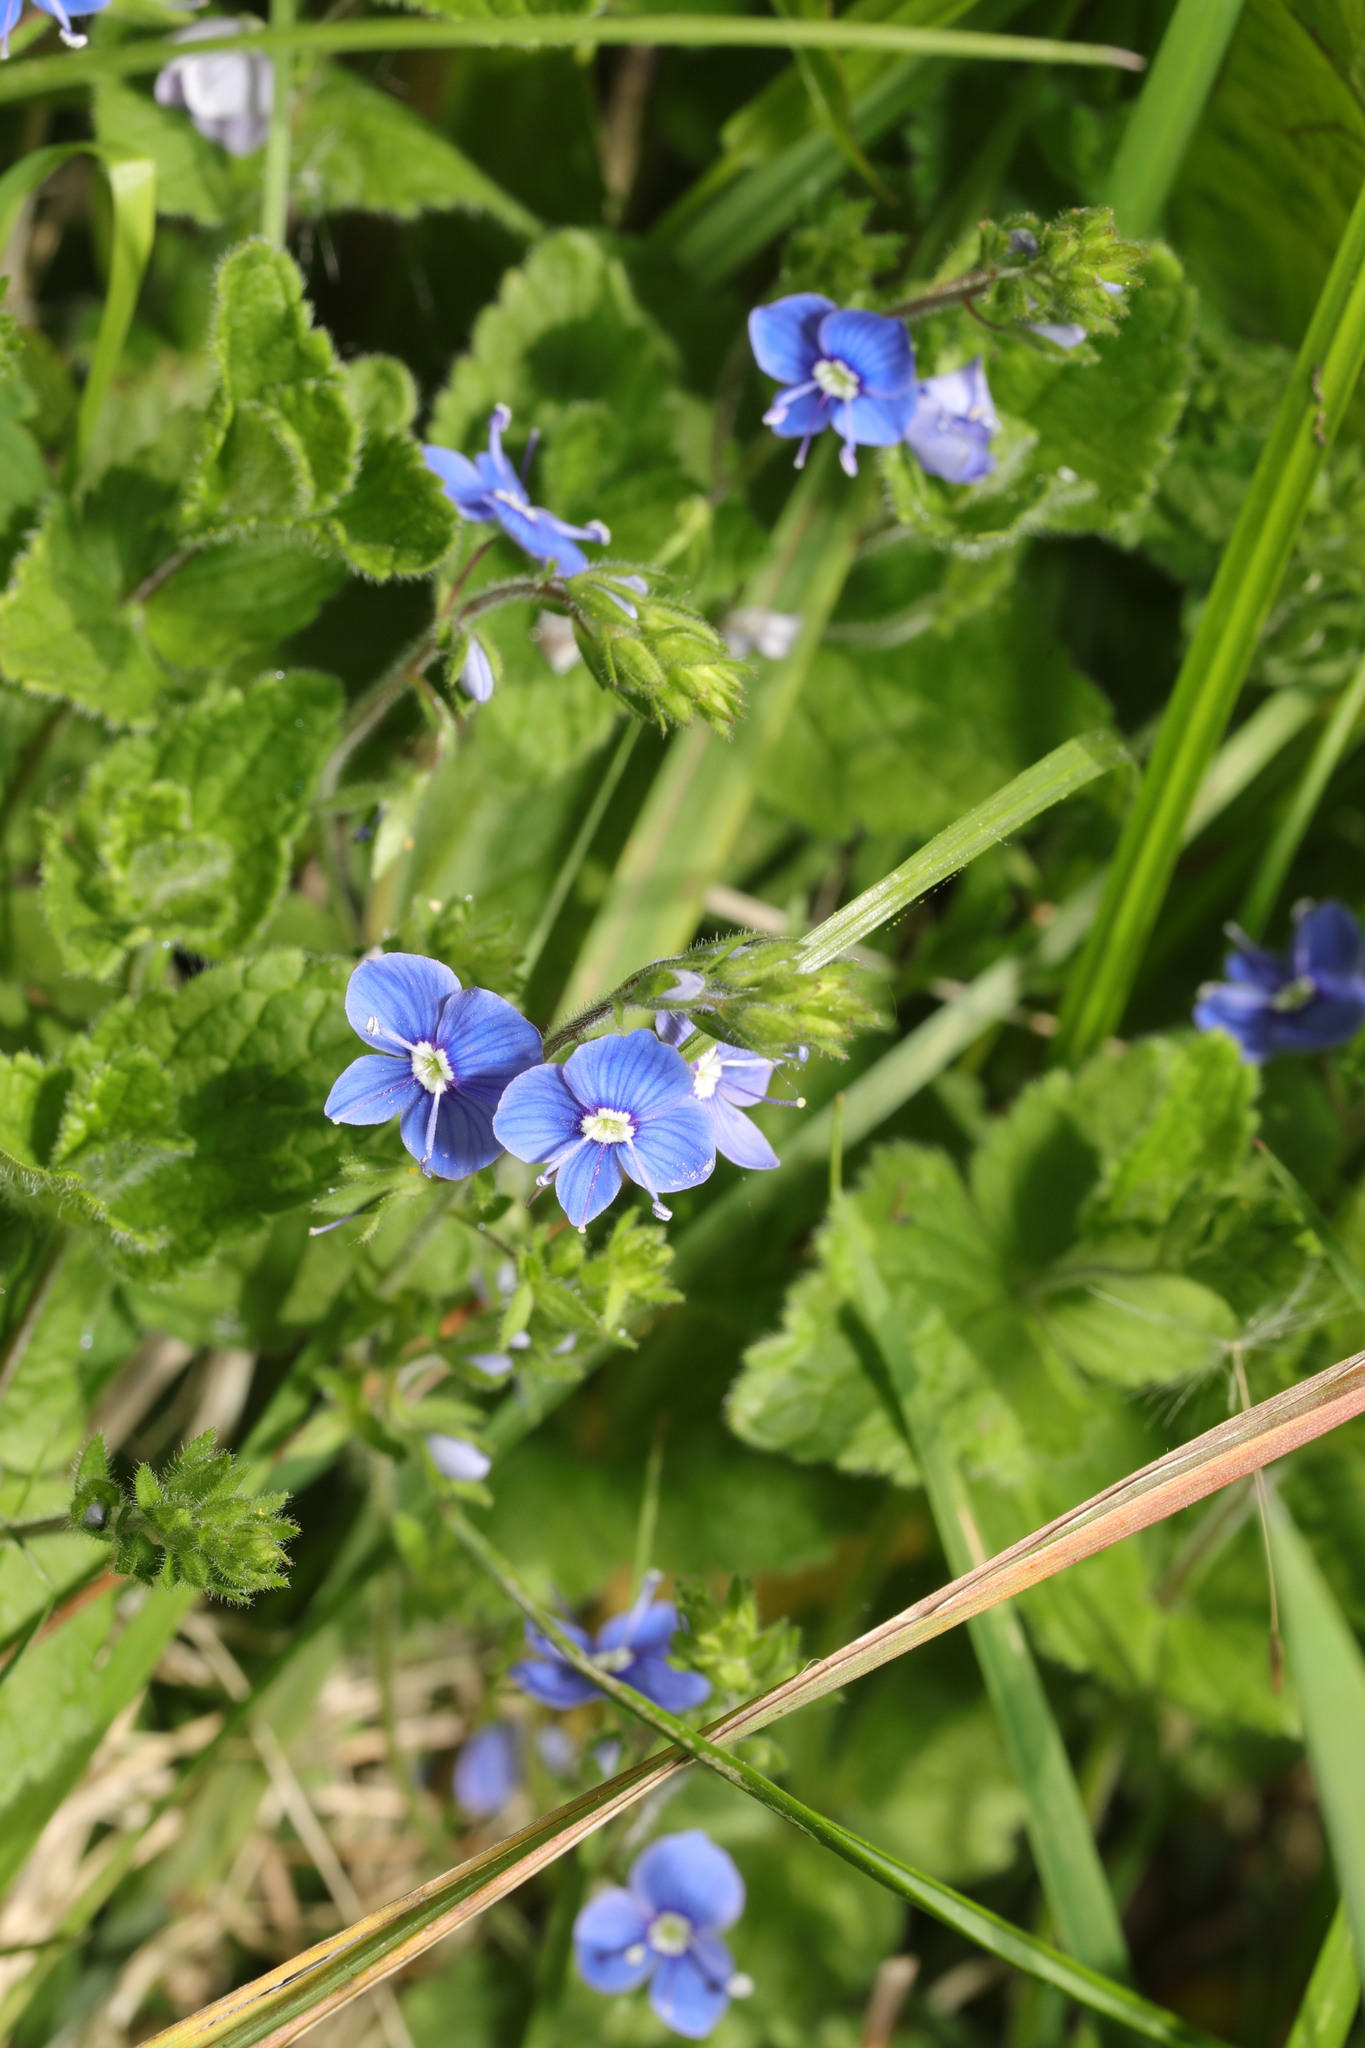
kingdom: Plantae
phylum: Tracheophyta
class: Magnoliopsida
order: Lamiales
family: Plantaginaceae
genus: Veronica
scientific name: Veronica chamaedrys
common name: Germander speedwell
